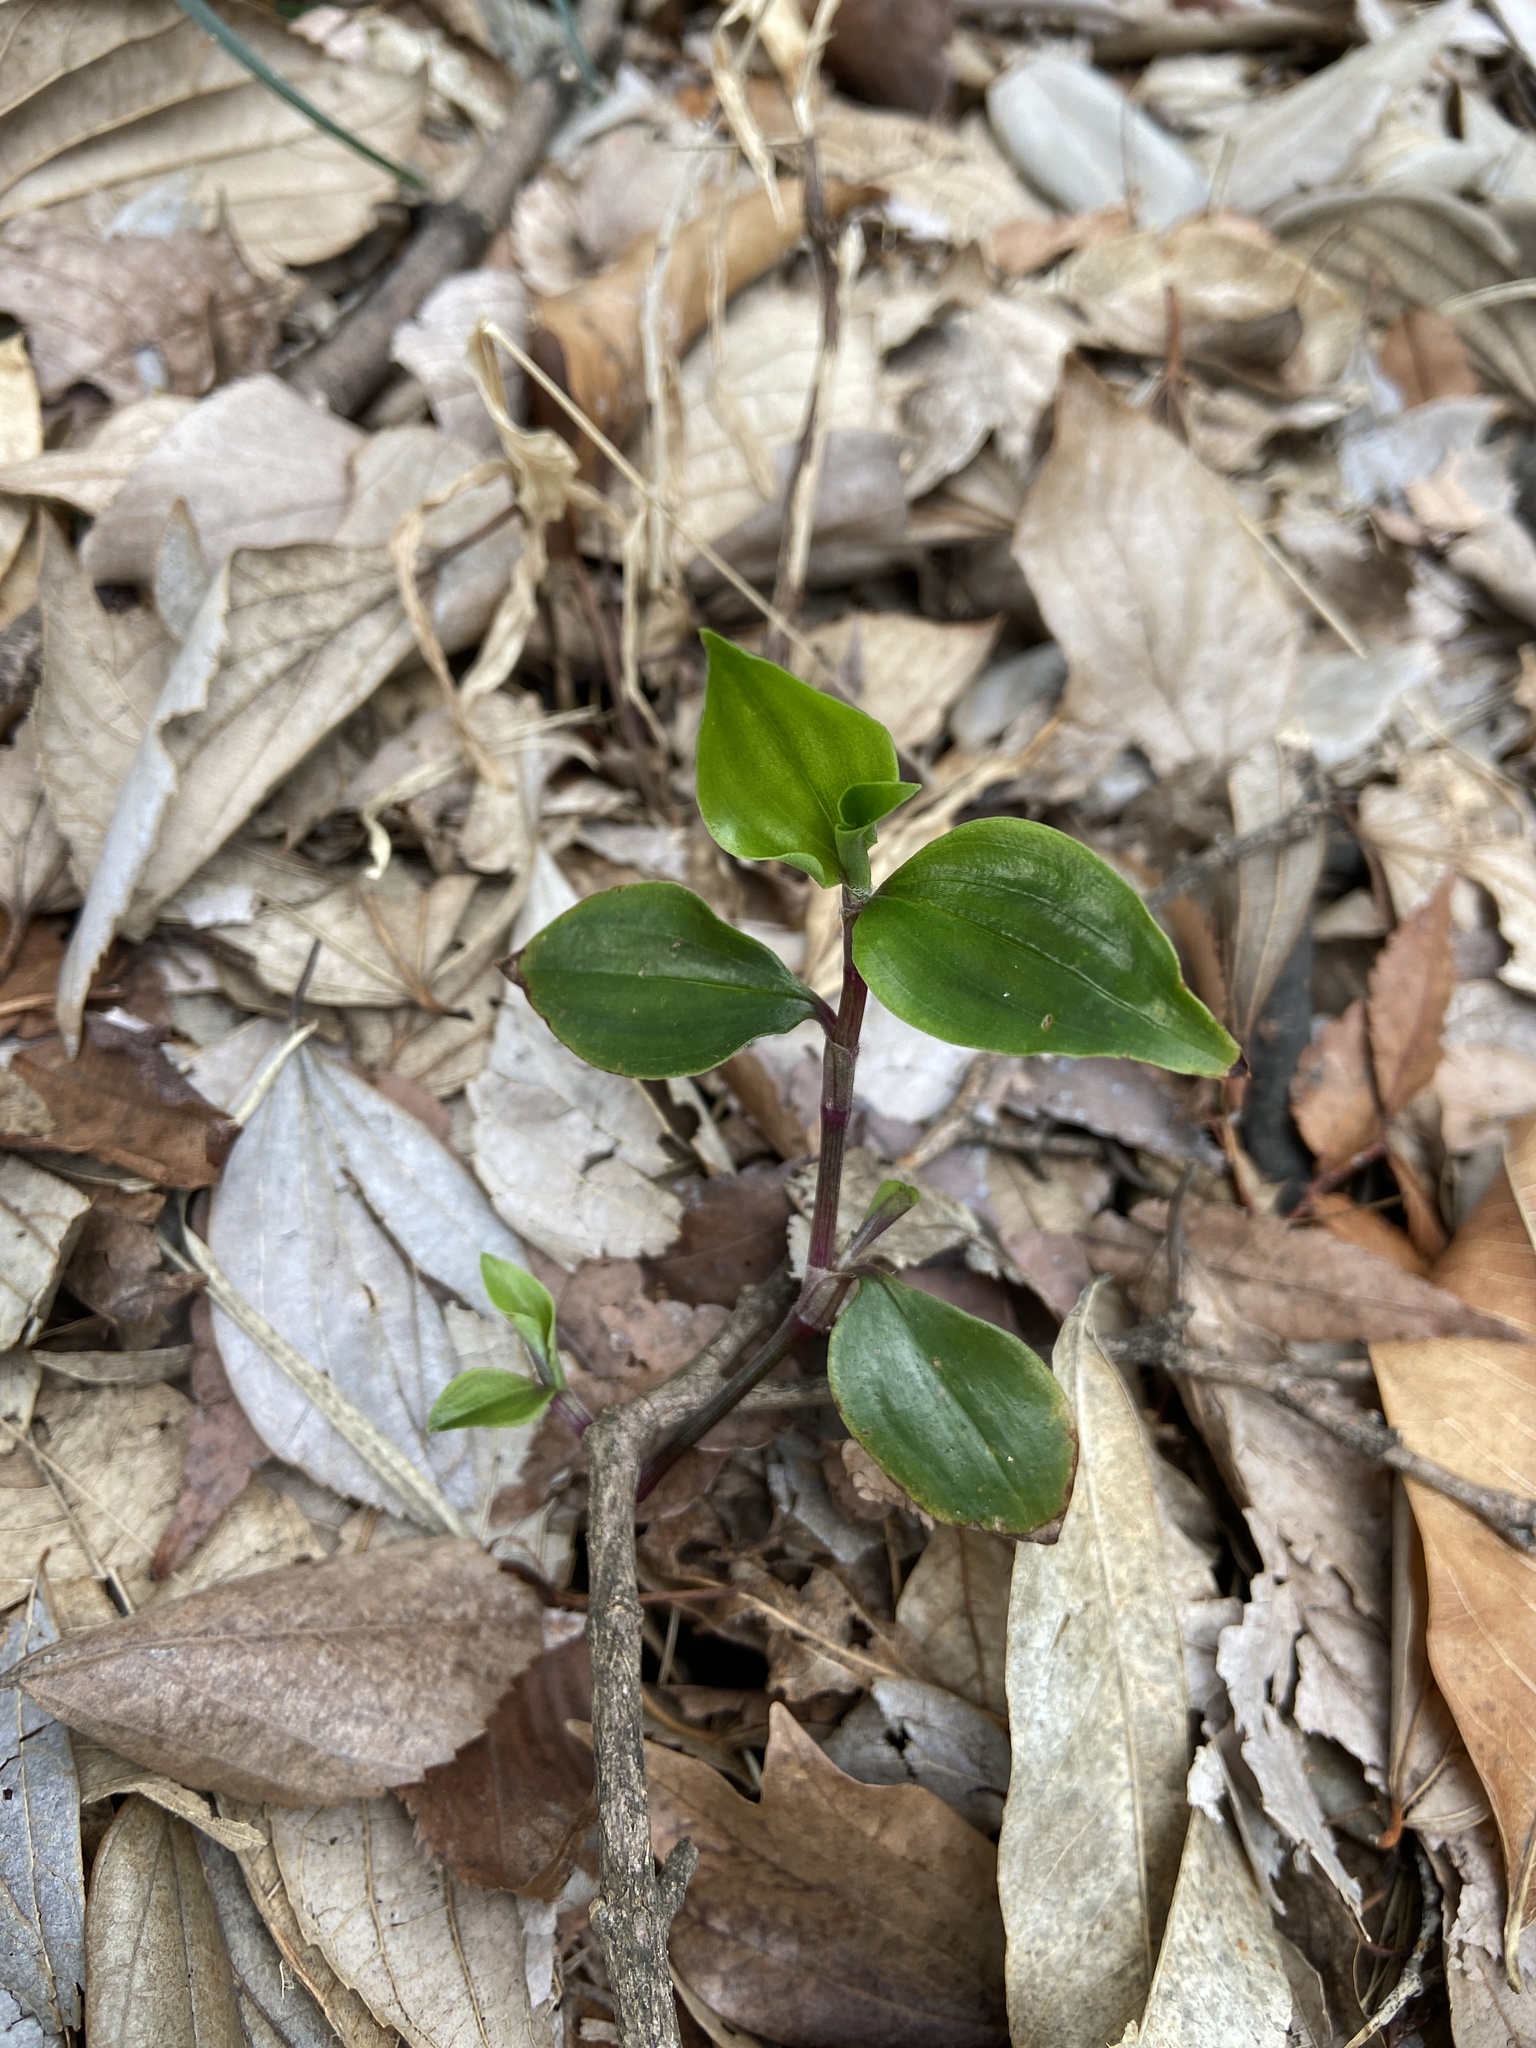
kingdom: Plantae
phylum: Tracheophyta
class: Liliopsida
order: Commelinales
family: Commelinaceae
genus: Tradescantia
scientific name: Tradescantia fluminensis
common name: Wandering-jew
